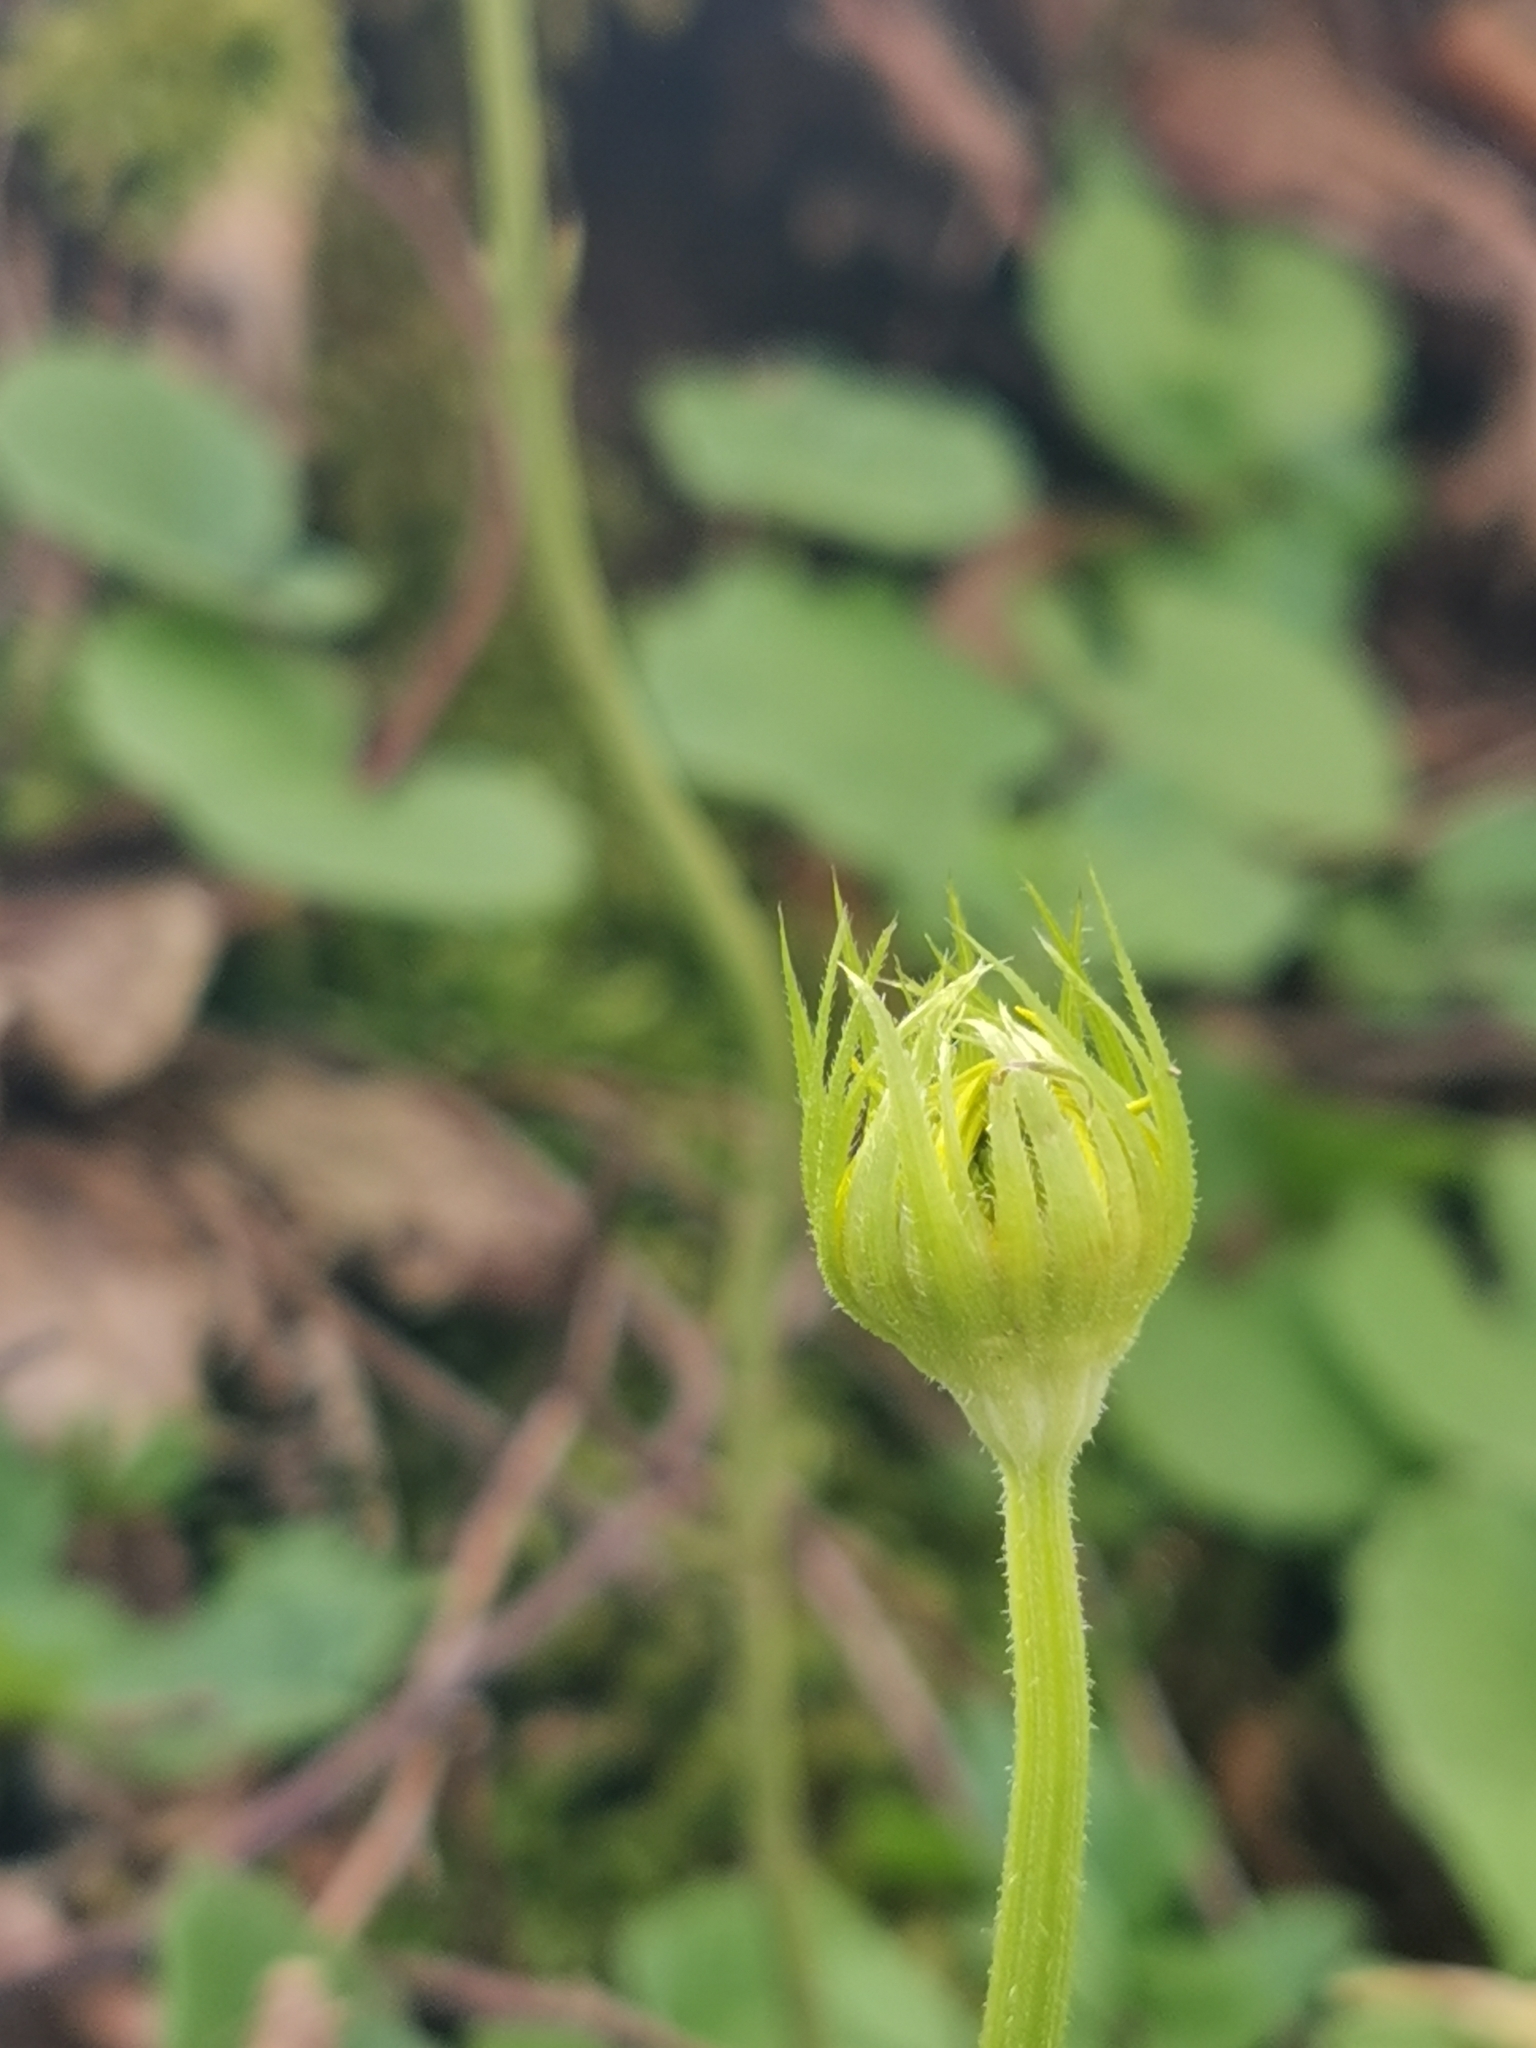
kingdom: Plantae
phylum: Tracheophyta
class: Magnoliopsida
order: Asterales
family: Asteraceae
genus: Doronicum
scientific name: Doronicum
